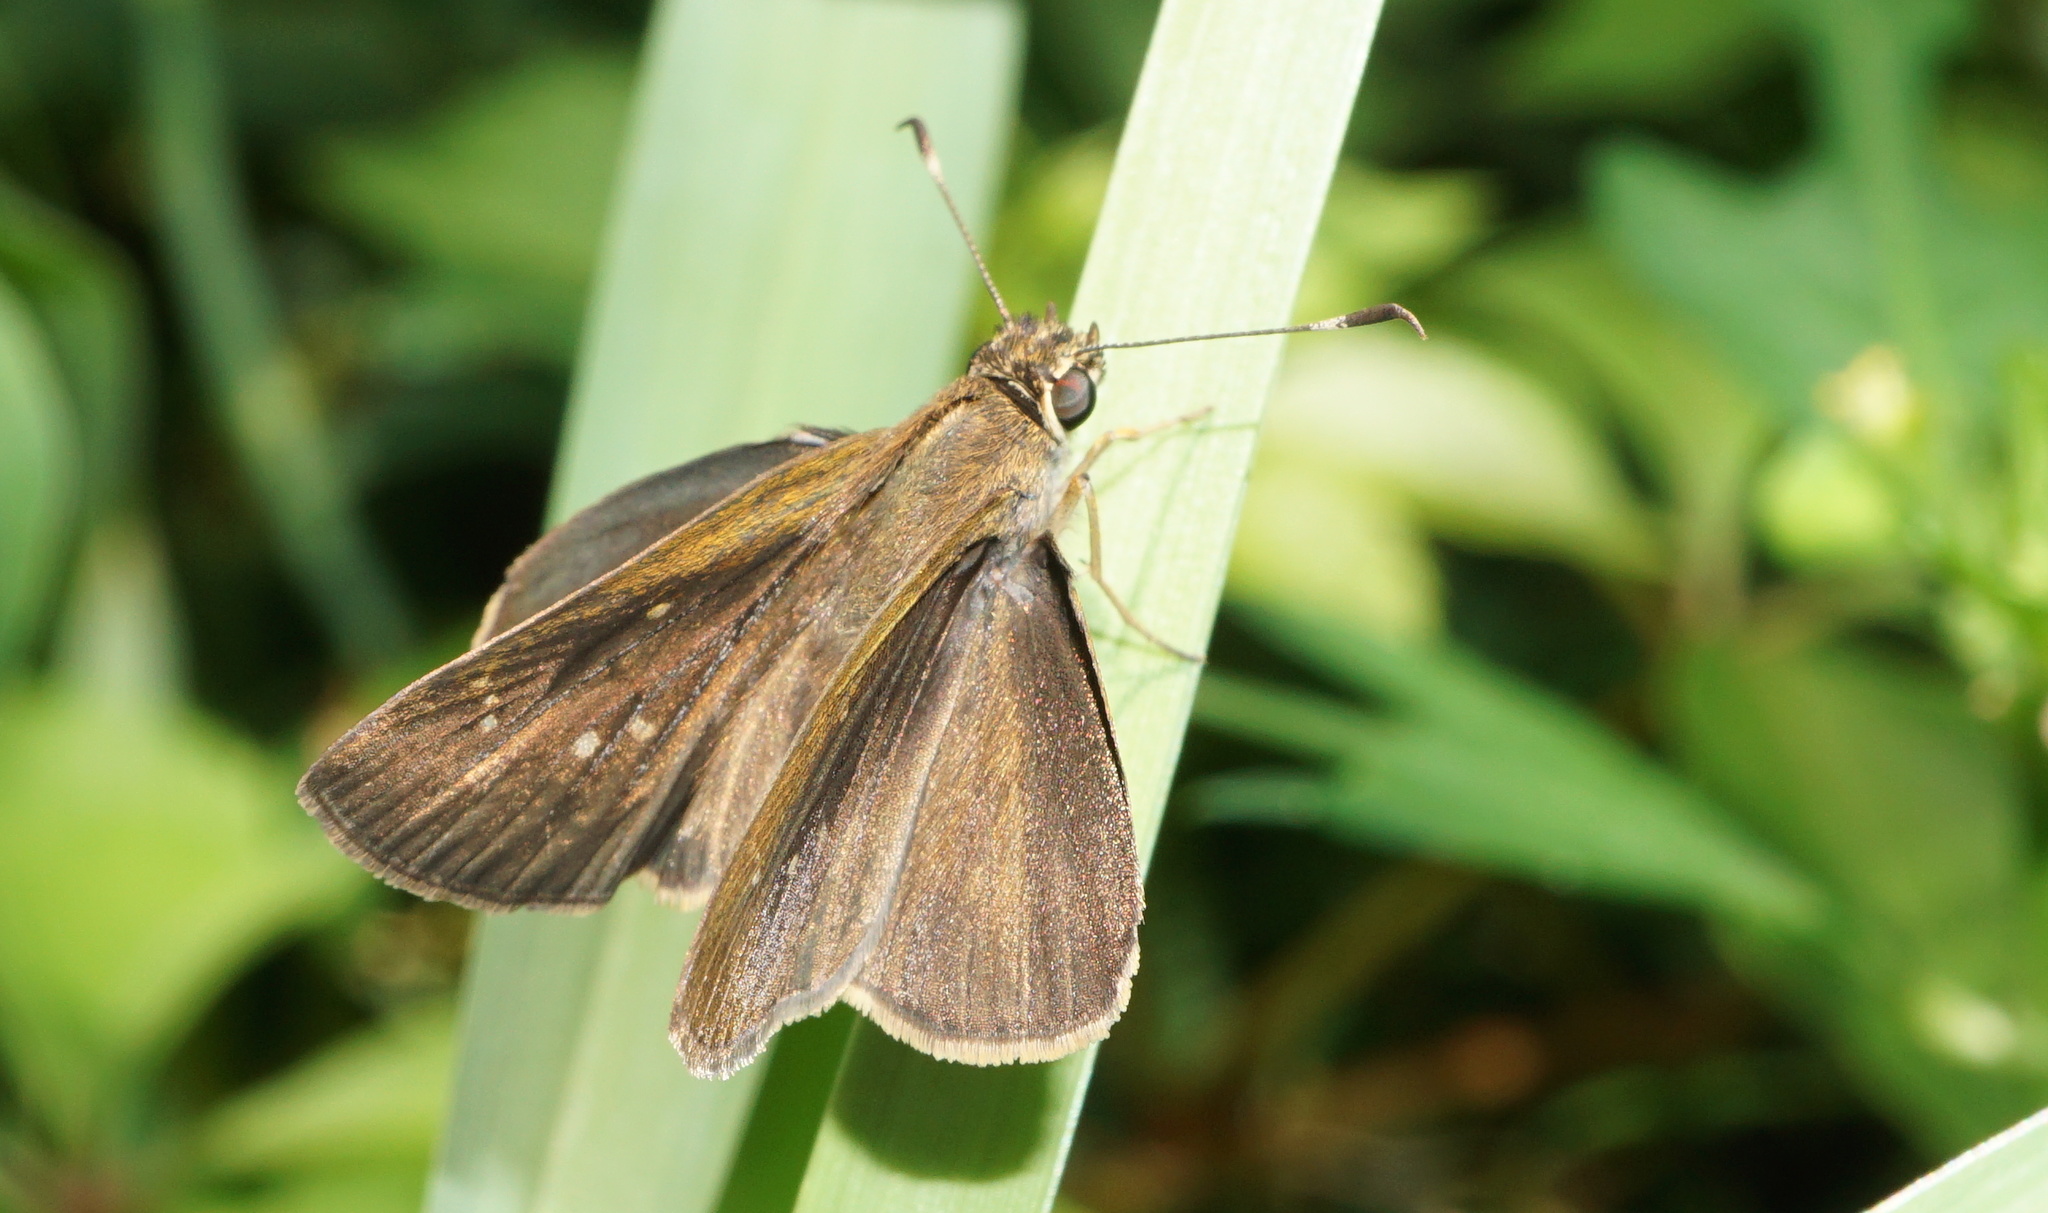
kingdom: Animalia
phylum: Arthropoda
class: Insecta
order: Lepidoptera
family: Hesperiidae
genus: Cymaenes
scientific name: Cymaenes tripunctus
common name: Dingy dotted skipper
